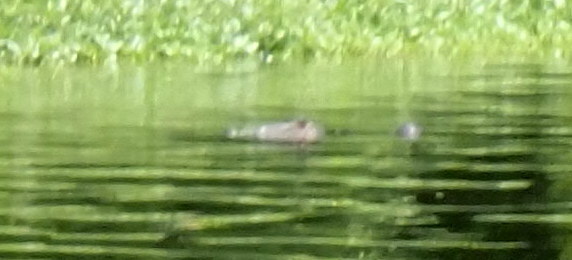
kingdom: Animalia
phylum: Chordata
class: Crocodylia
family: Alligatoridae
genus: Alligator
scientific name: Alligator mississippiensis
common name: American alligator
